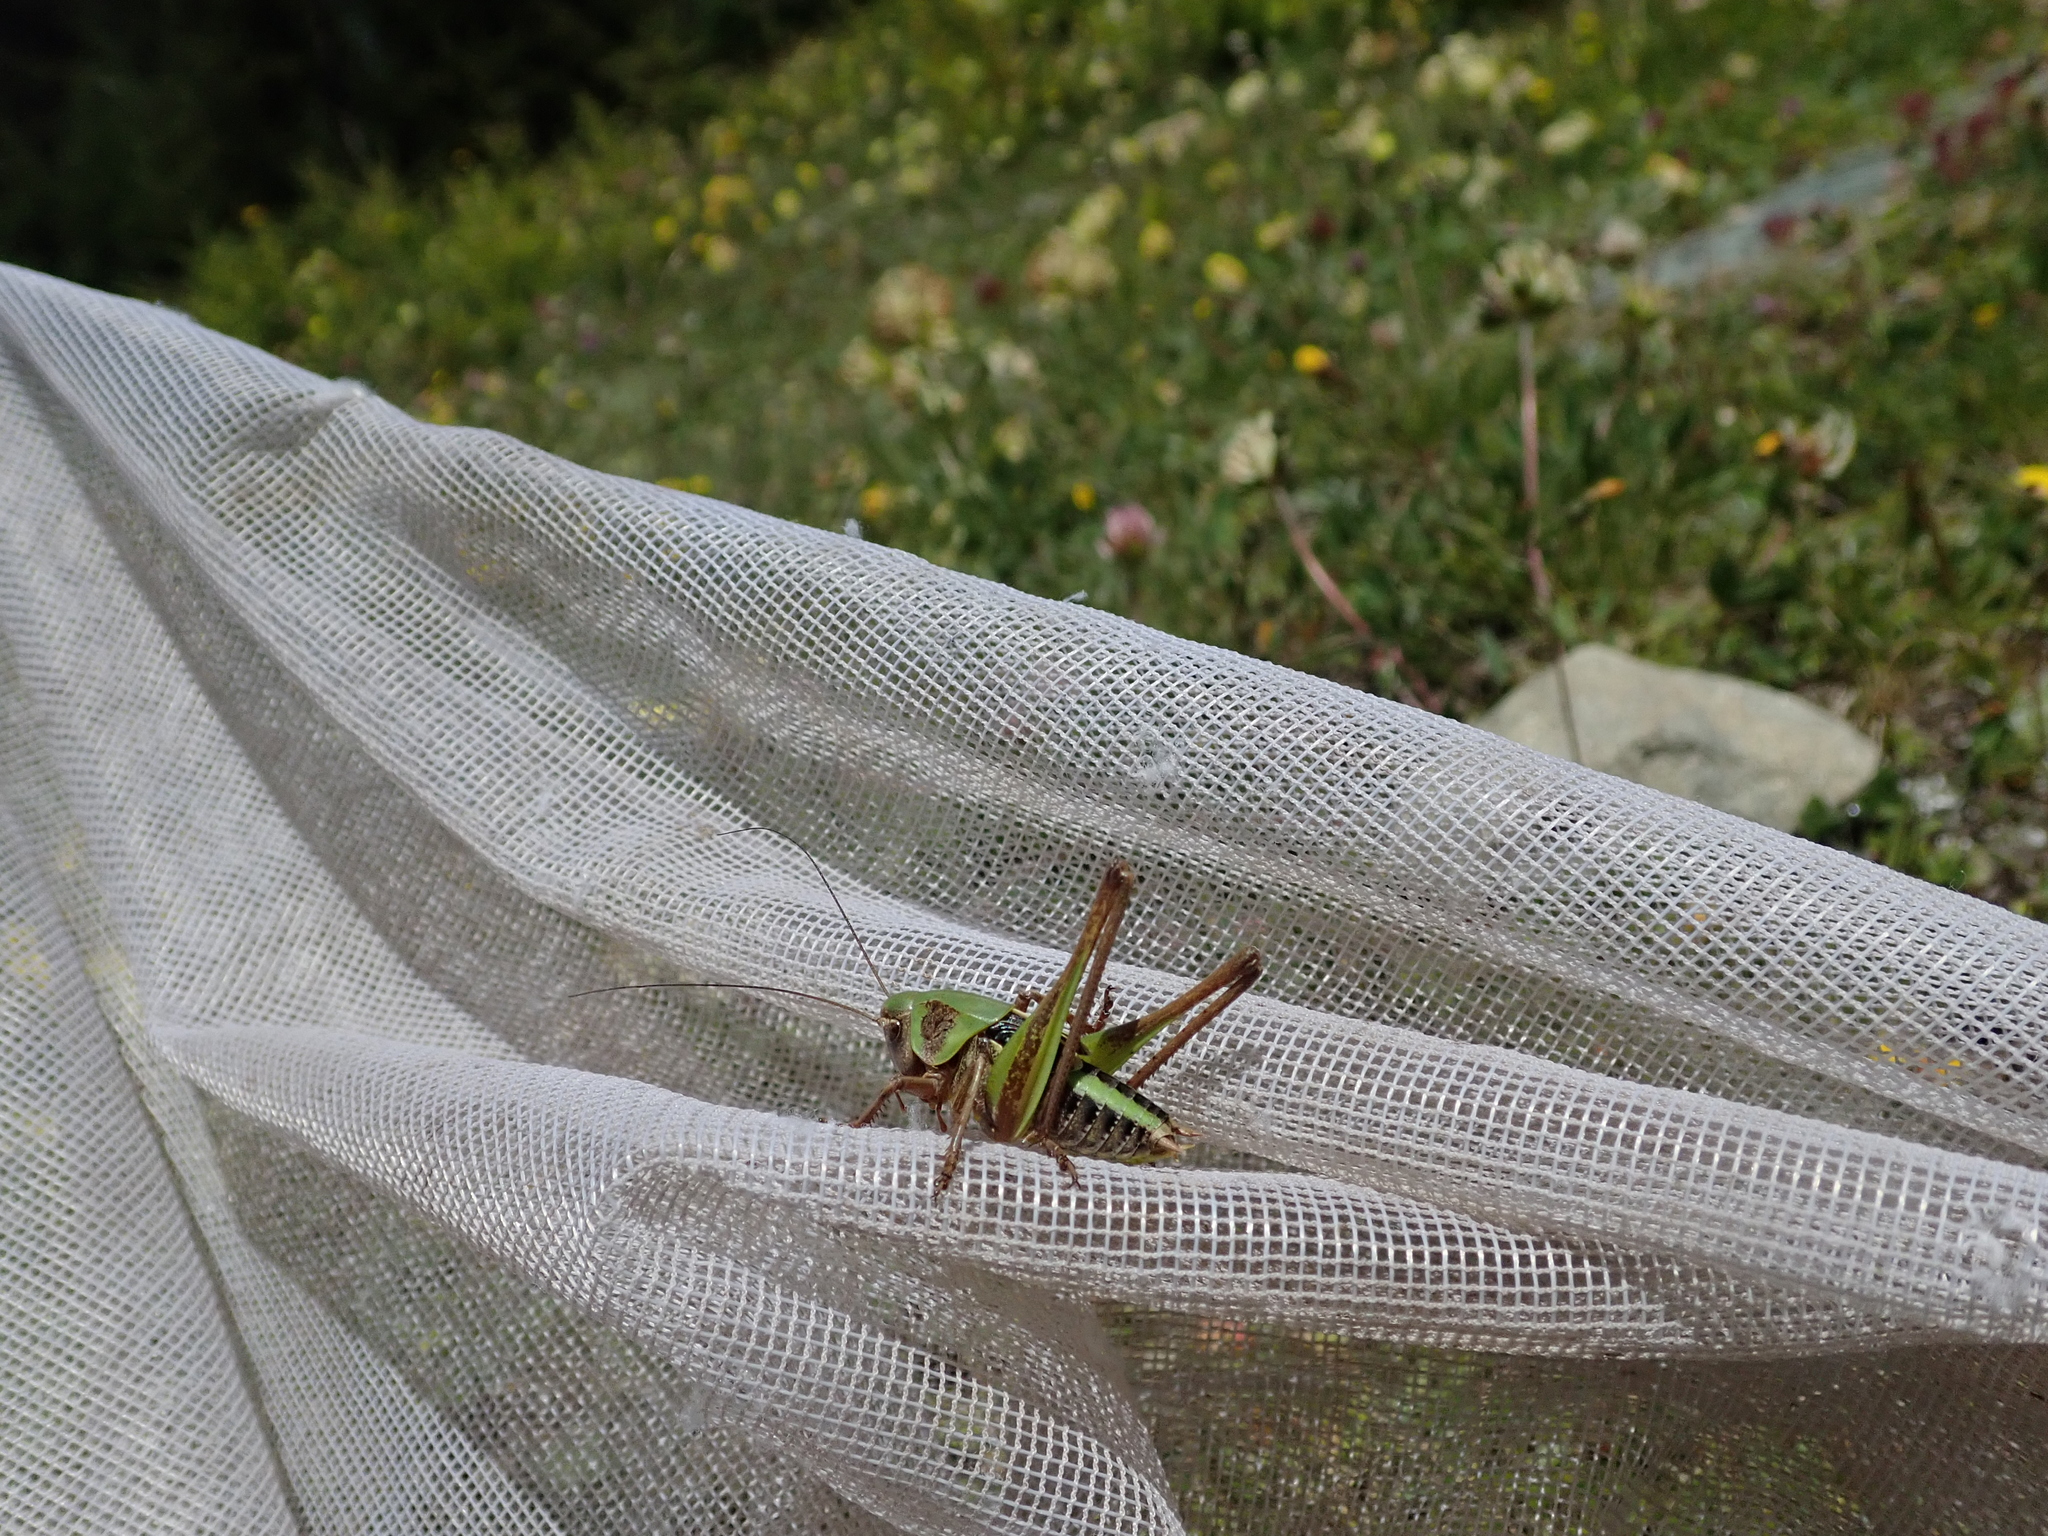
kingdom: Animalia
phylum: Arthropoda
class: Insecta
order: Orthoptera
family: Tettigoniidae
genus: Decticus
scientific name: Decticus verrucivorus
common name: Wart-biter
